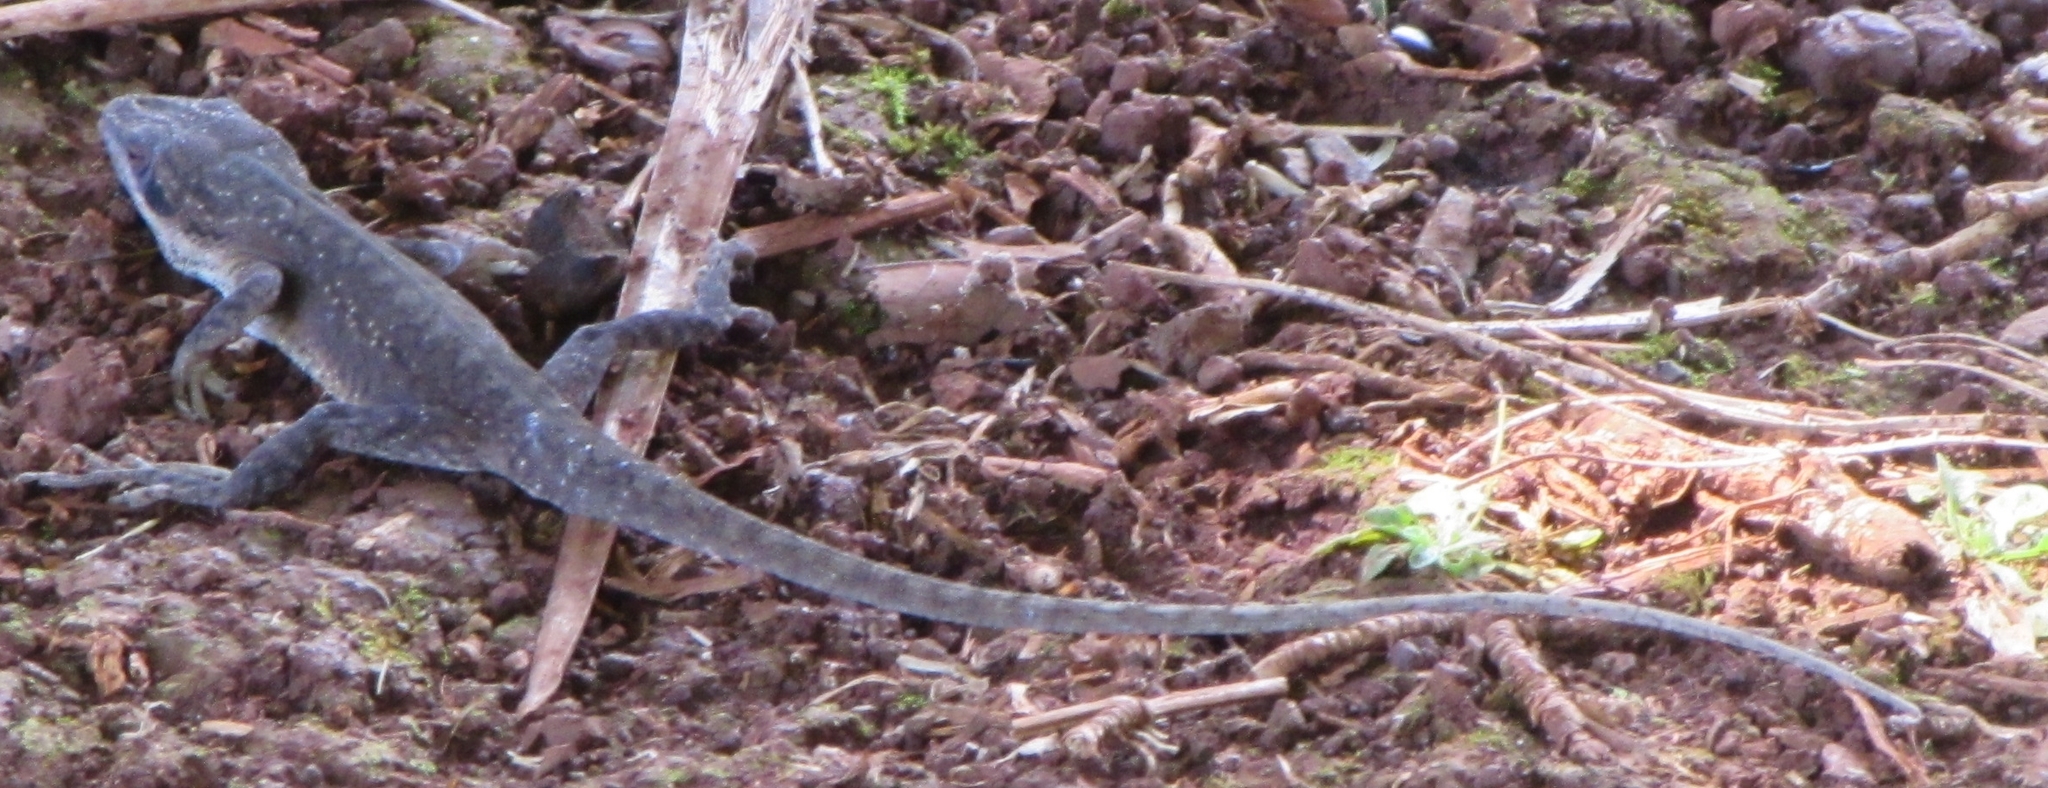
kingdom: Animalia
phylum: Chordata
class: Squamata
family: Dactyloidae
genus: Anolis
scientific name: Anolis carolinensis
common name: Green anole
